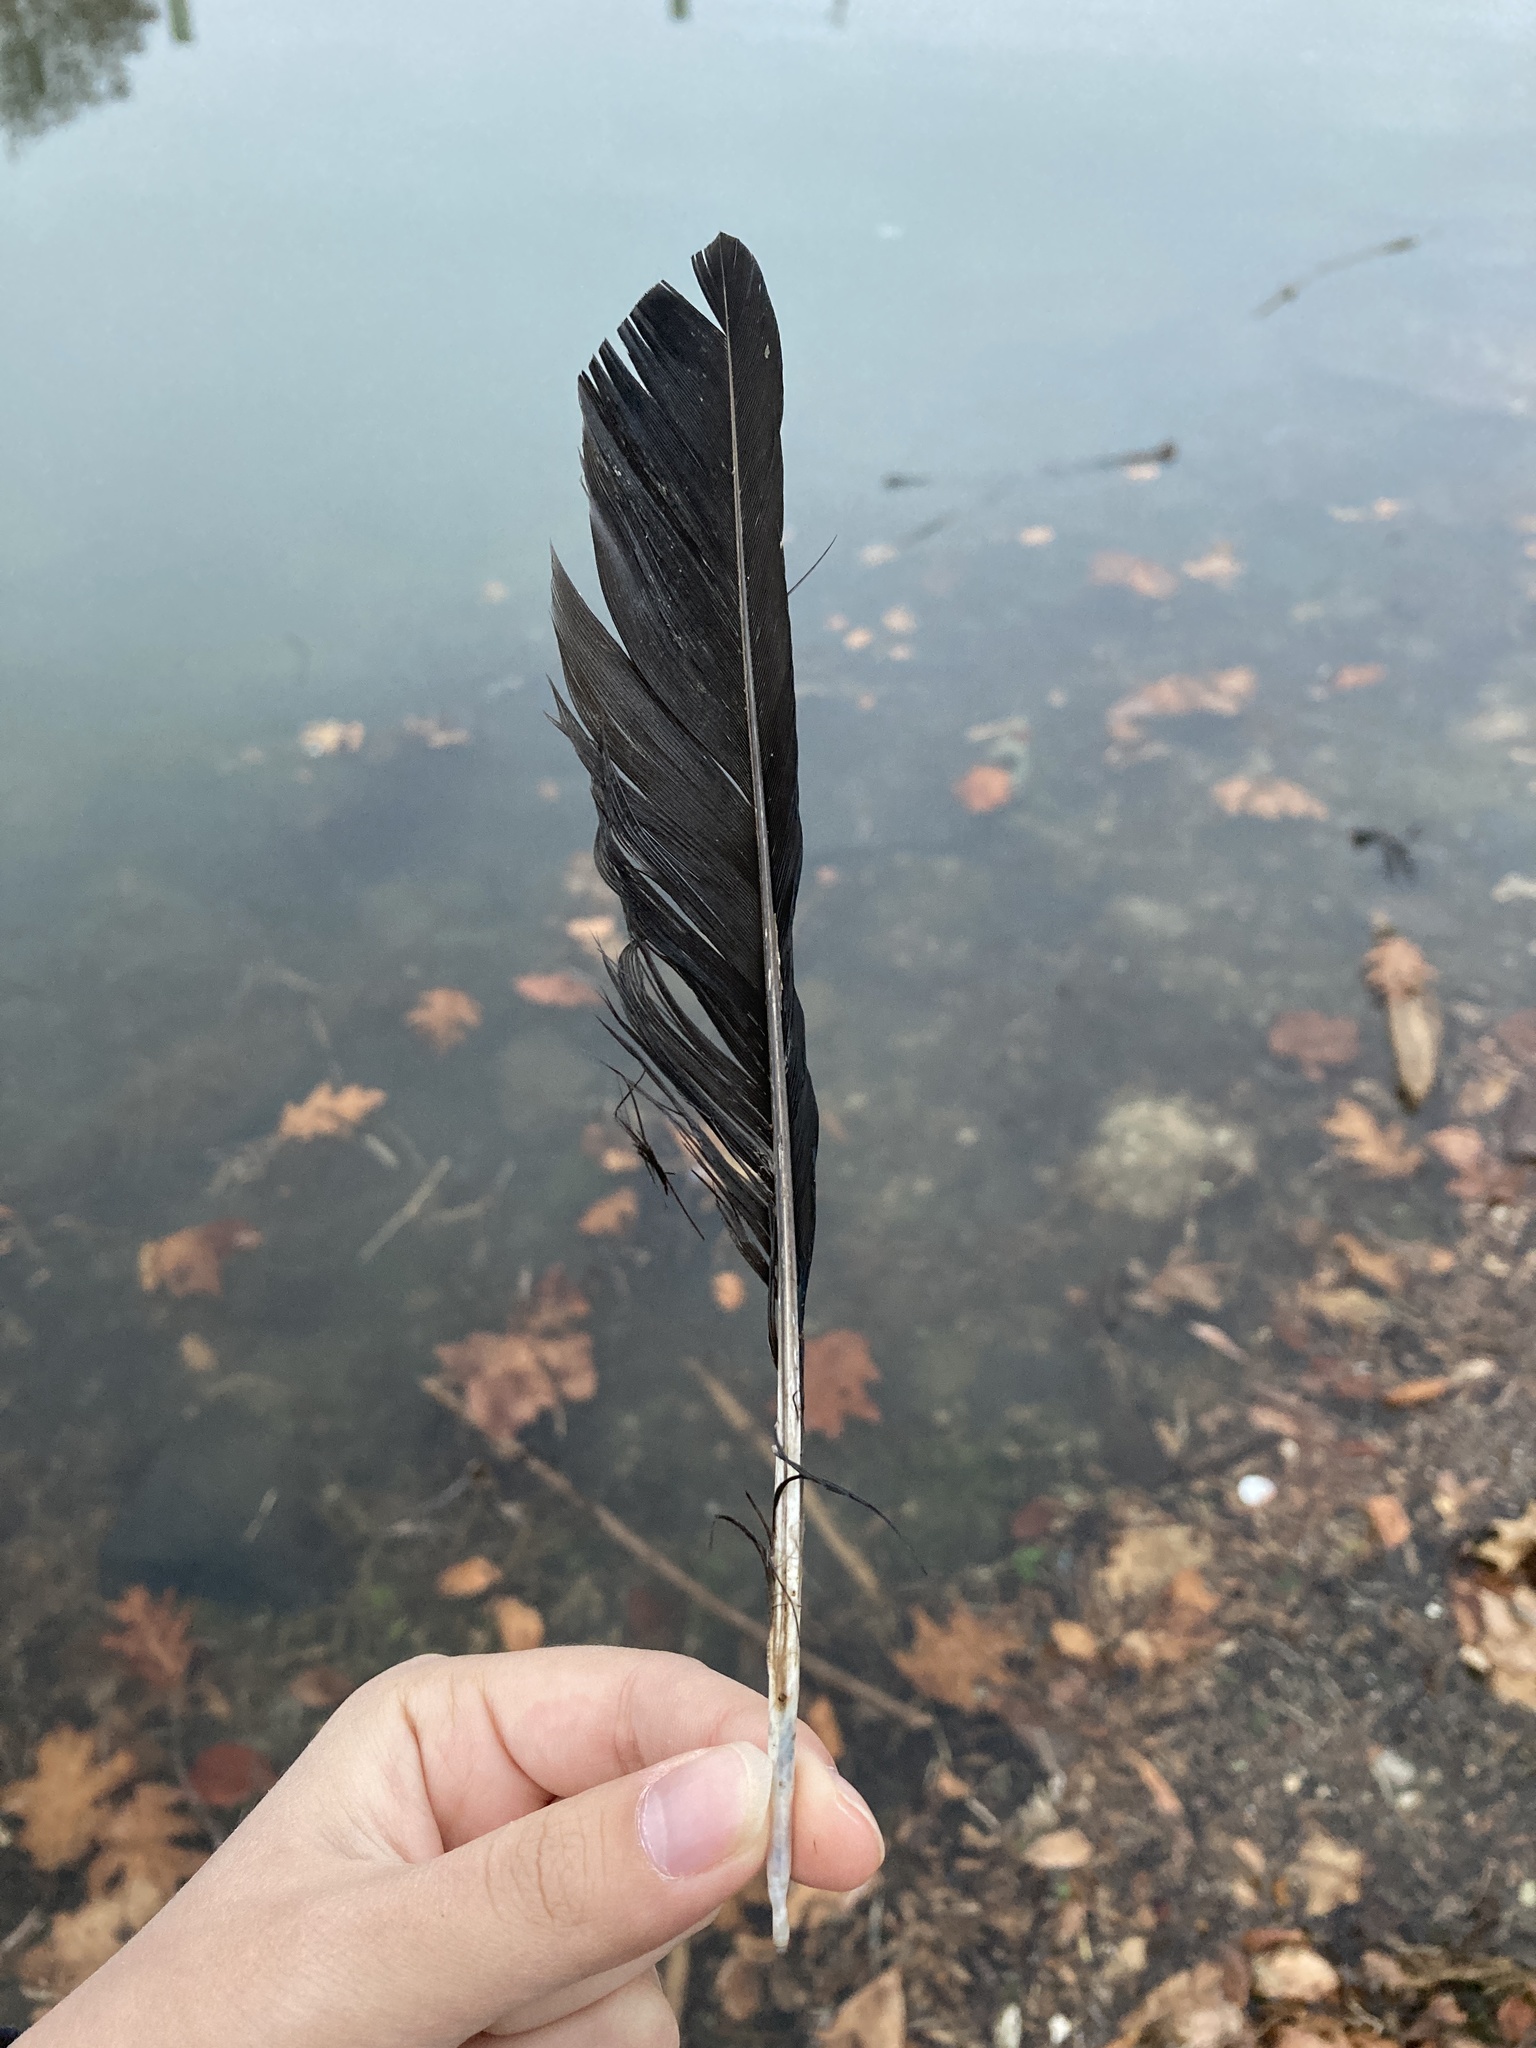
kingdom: Animalia
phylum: Chordata
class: Aves
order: Passeriformes
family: Corvidae
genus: Corvus
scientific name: Corvus
